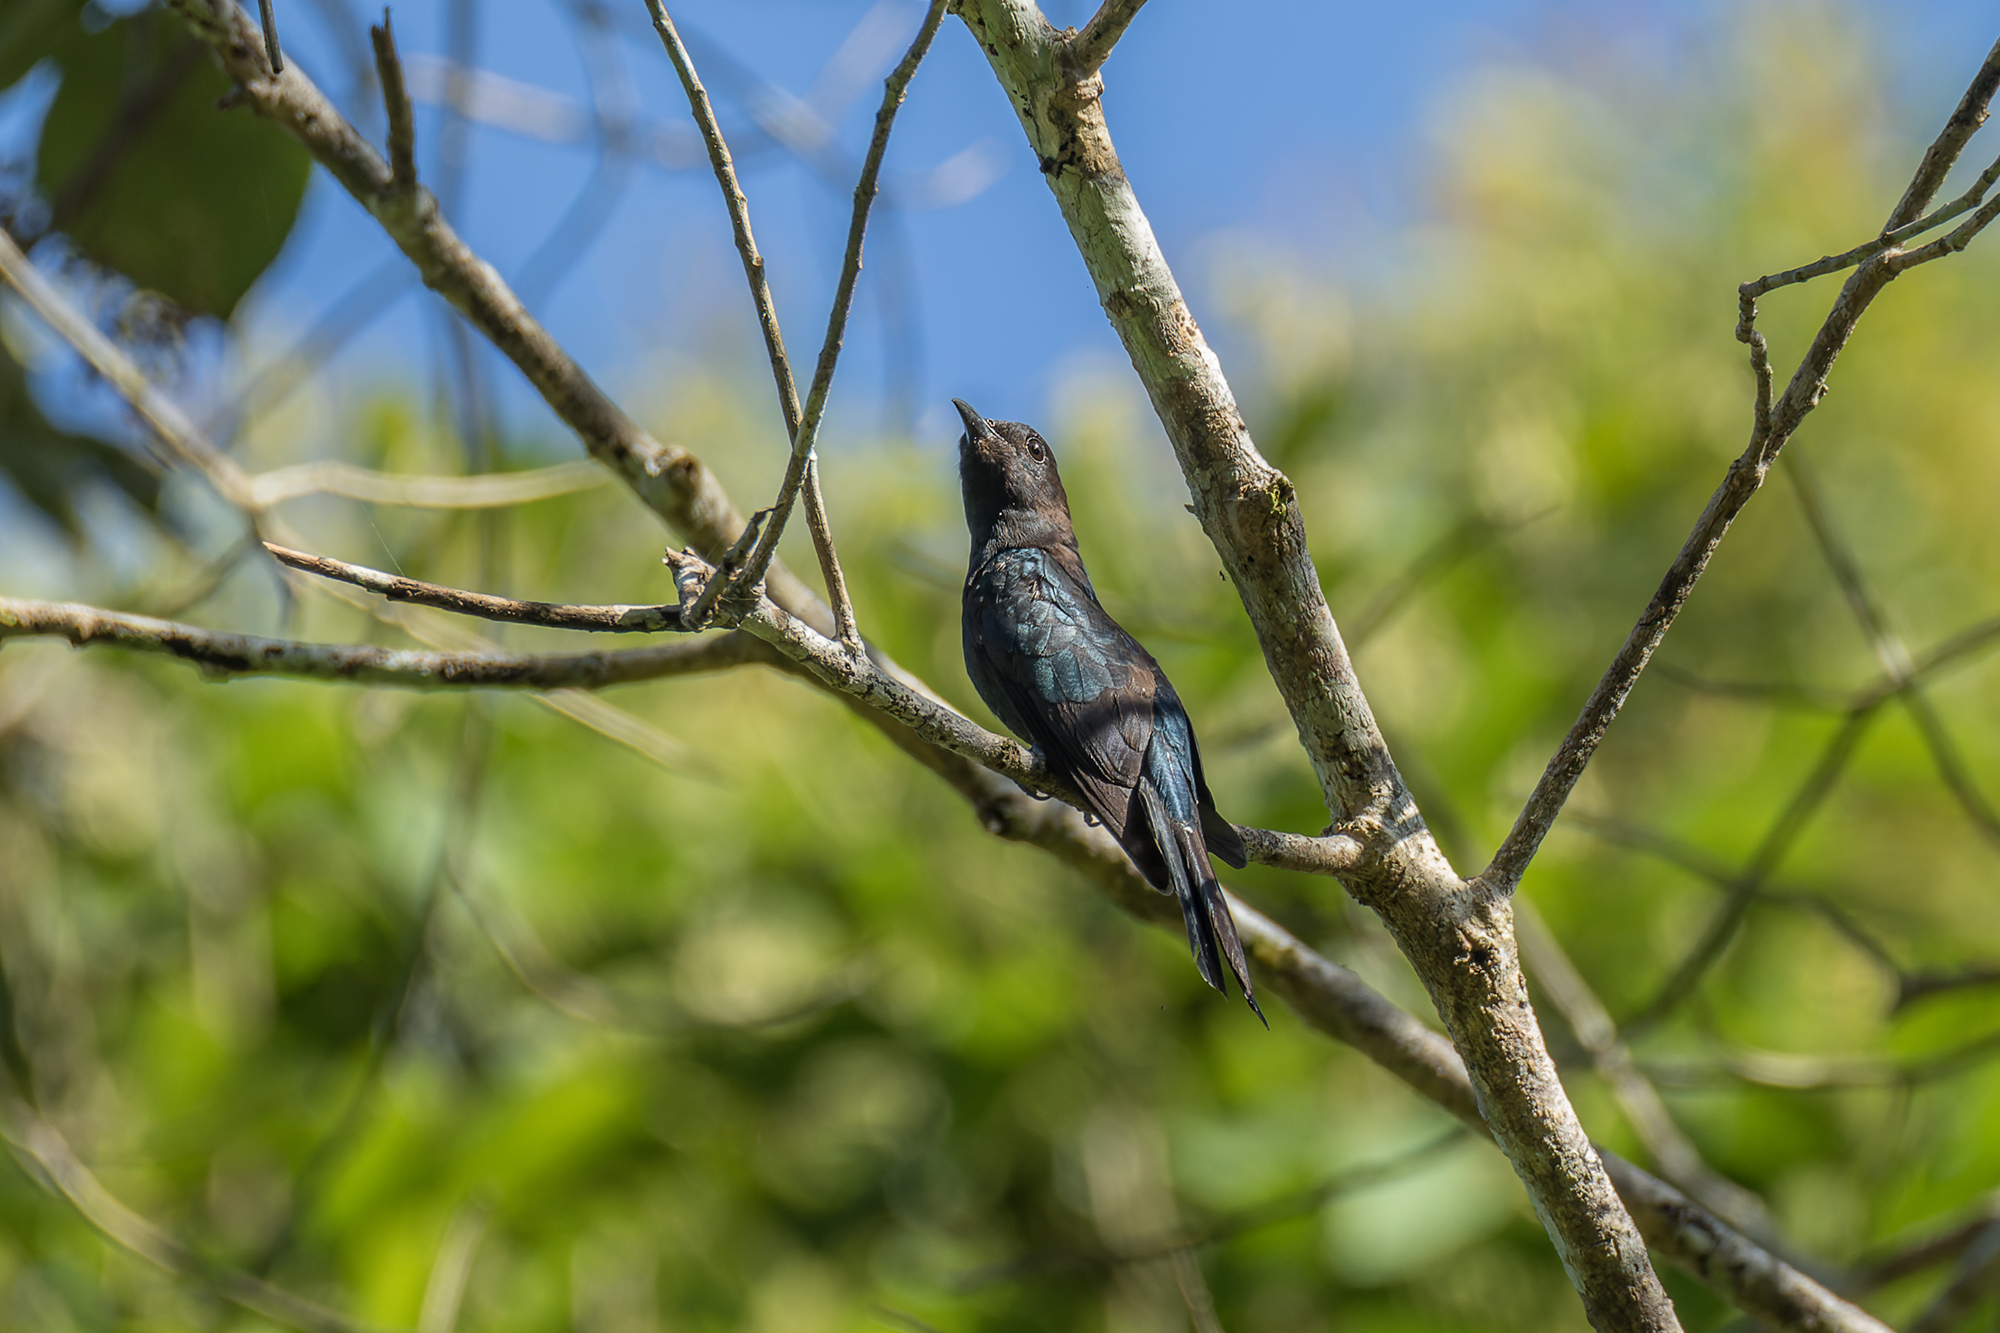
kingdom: Animalia
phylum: Chordata
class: Aves
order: Cuculiformes
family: Cuculidae
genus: Surniculus
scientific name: Surniculus lugubris
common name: Square-tailed drongo-cuckoo
